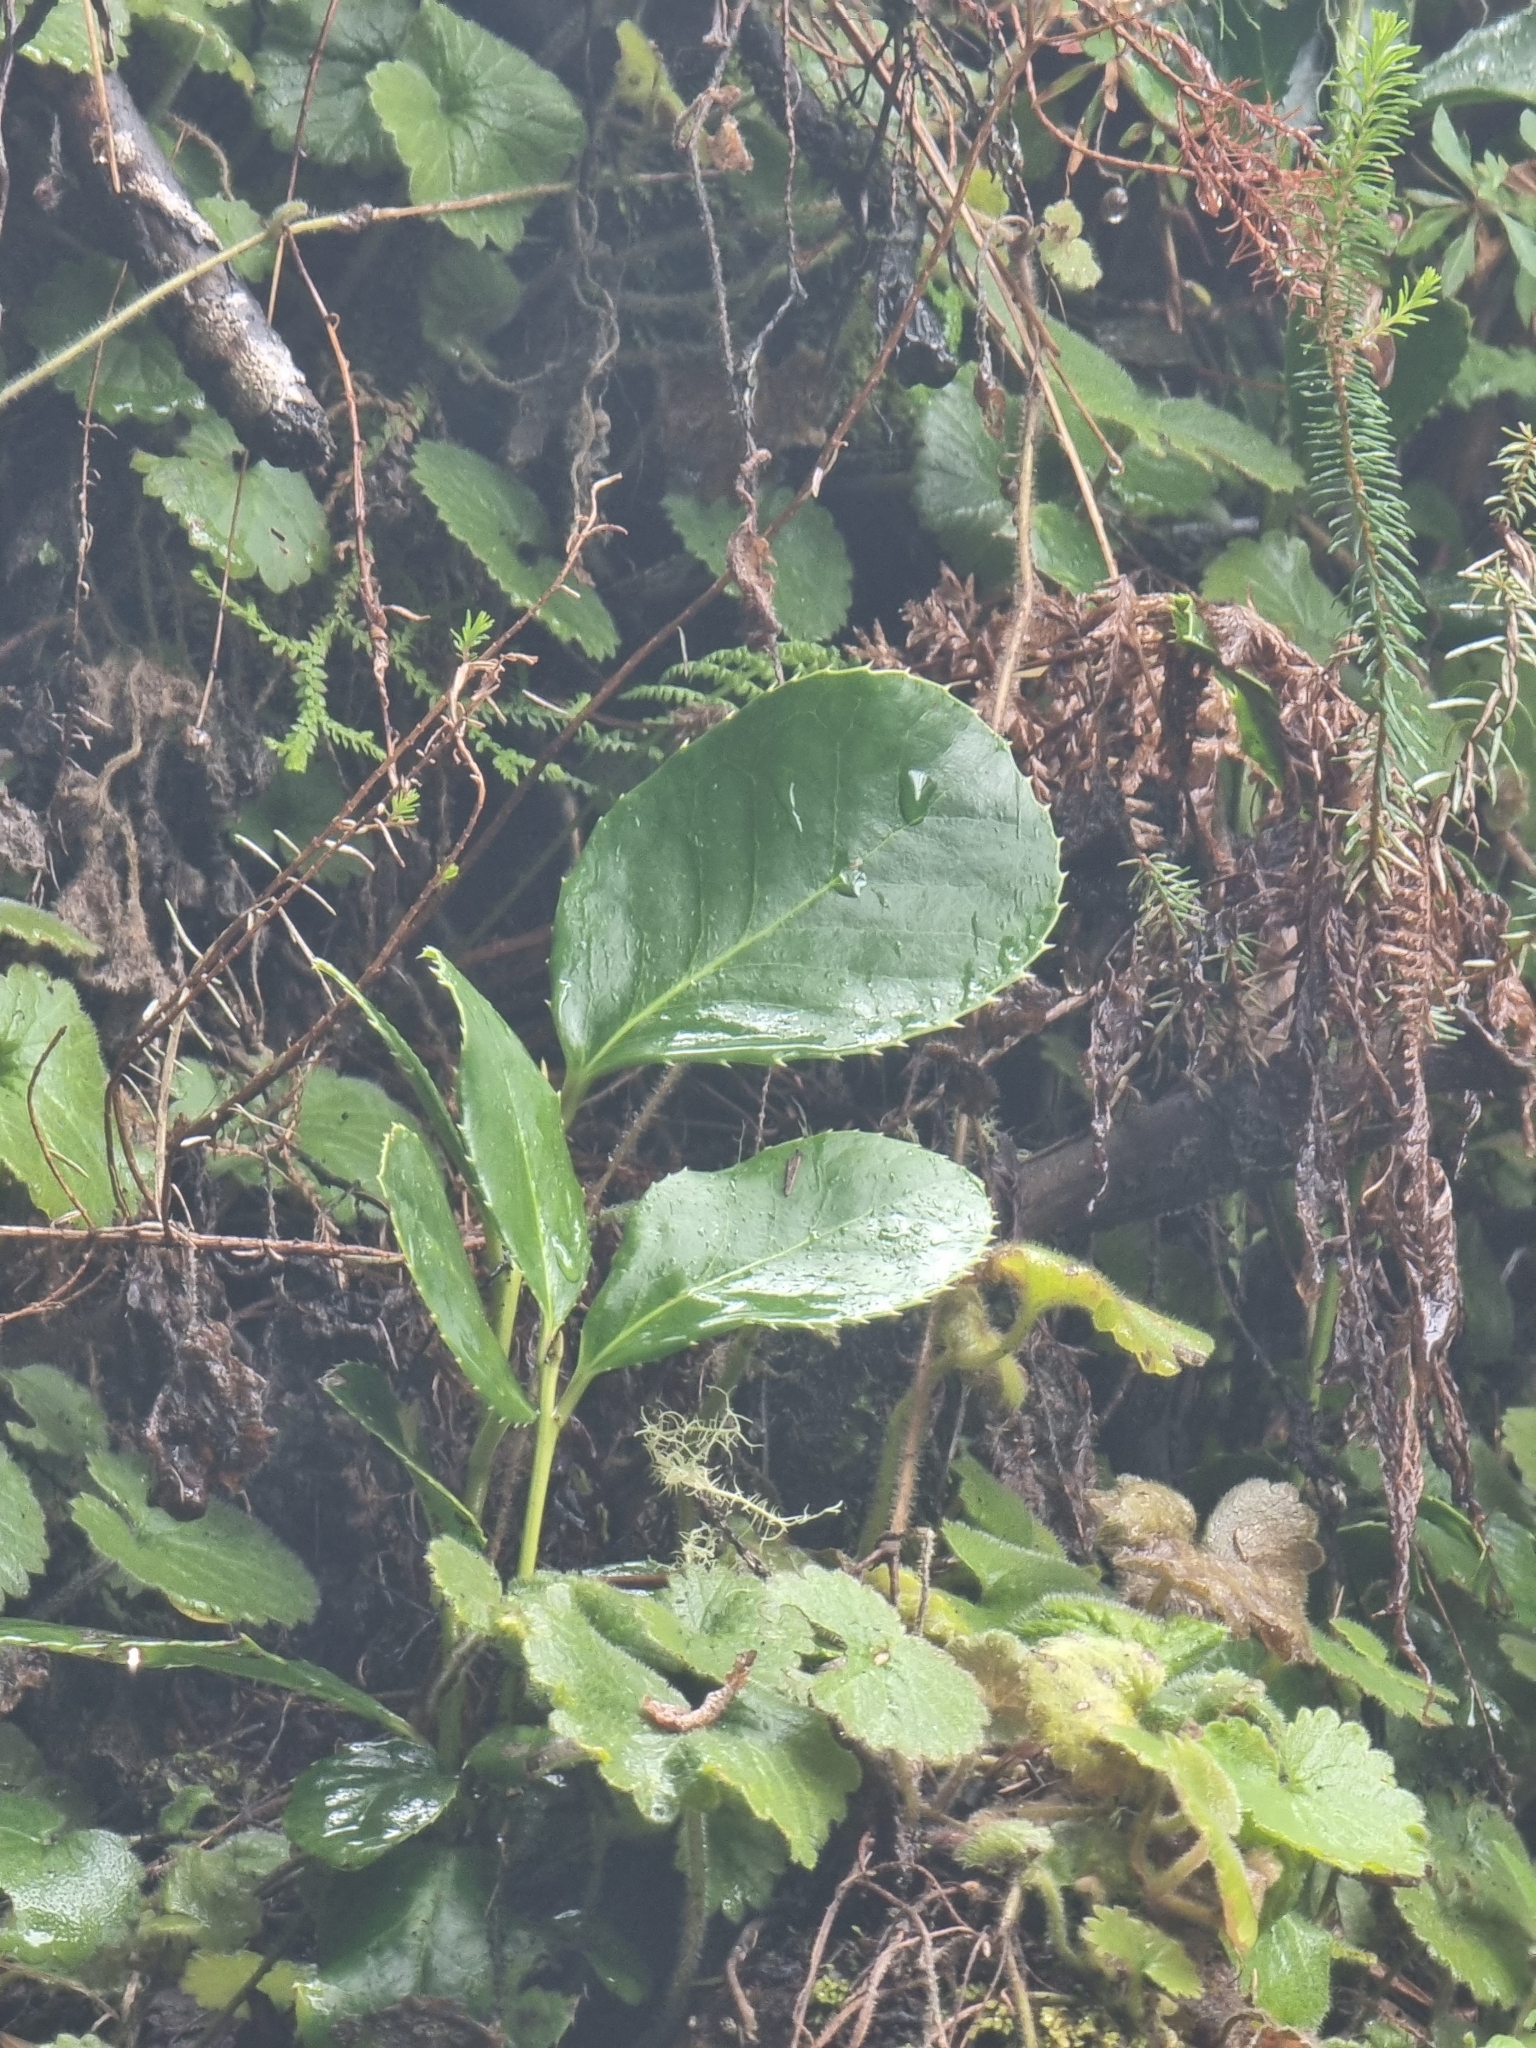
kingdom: Plantae
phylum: Tracheophyta
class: Magnoliopsida
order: Aquifoliales
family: Aquifoliaceae
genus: Ilex
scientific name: Ilex perado
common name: Madeira holly
